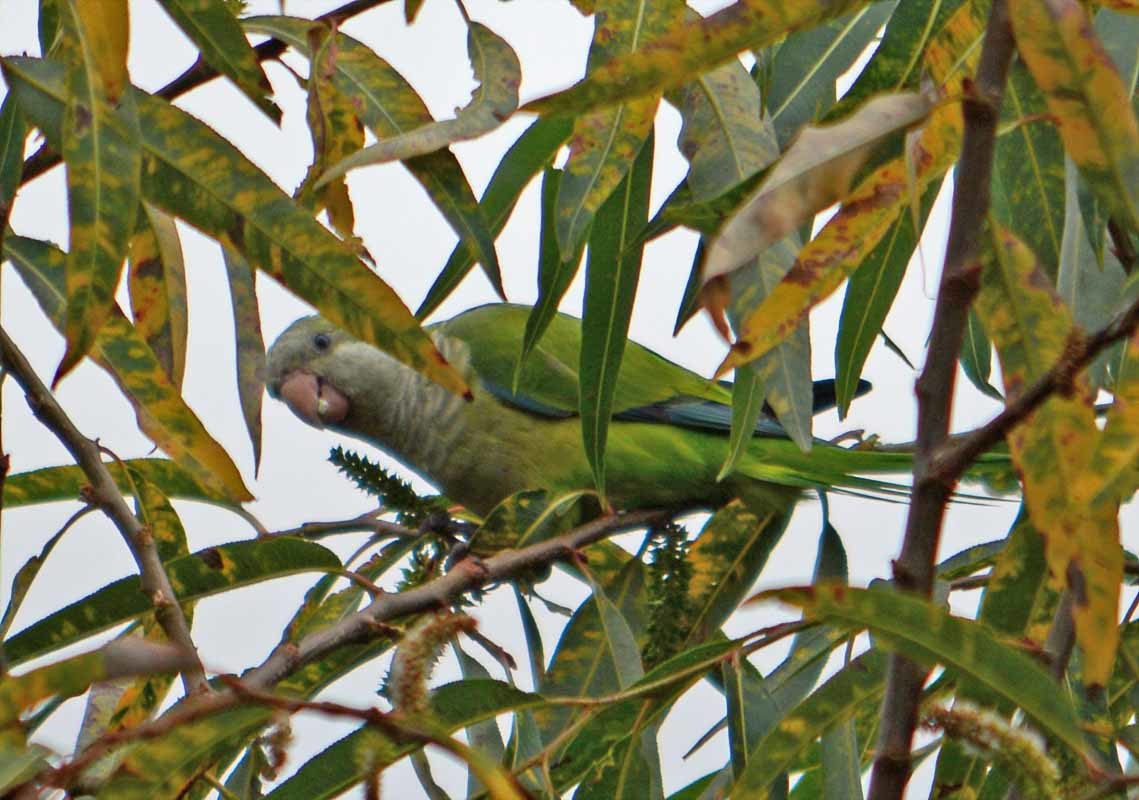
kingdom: Animalia
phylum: Chordata
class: Aves
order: Psittaciformes
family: Psittacidae
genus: Myiopsitta
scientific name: Myiopsitta monachus
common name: Monk parakeet
